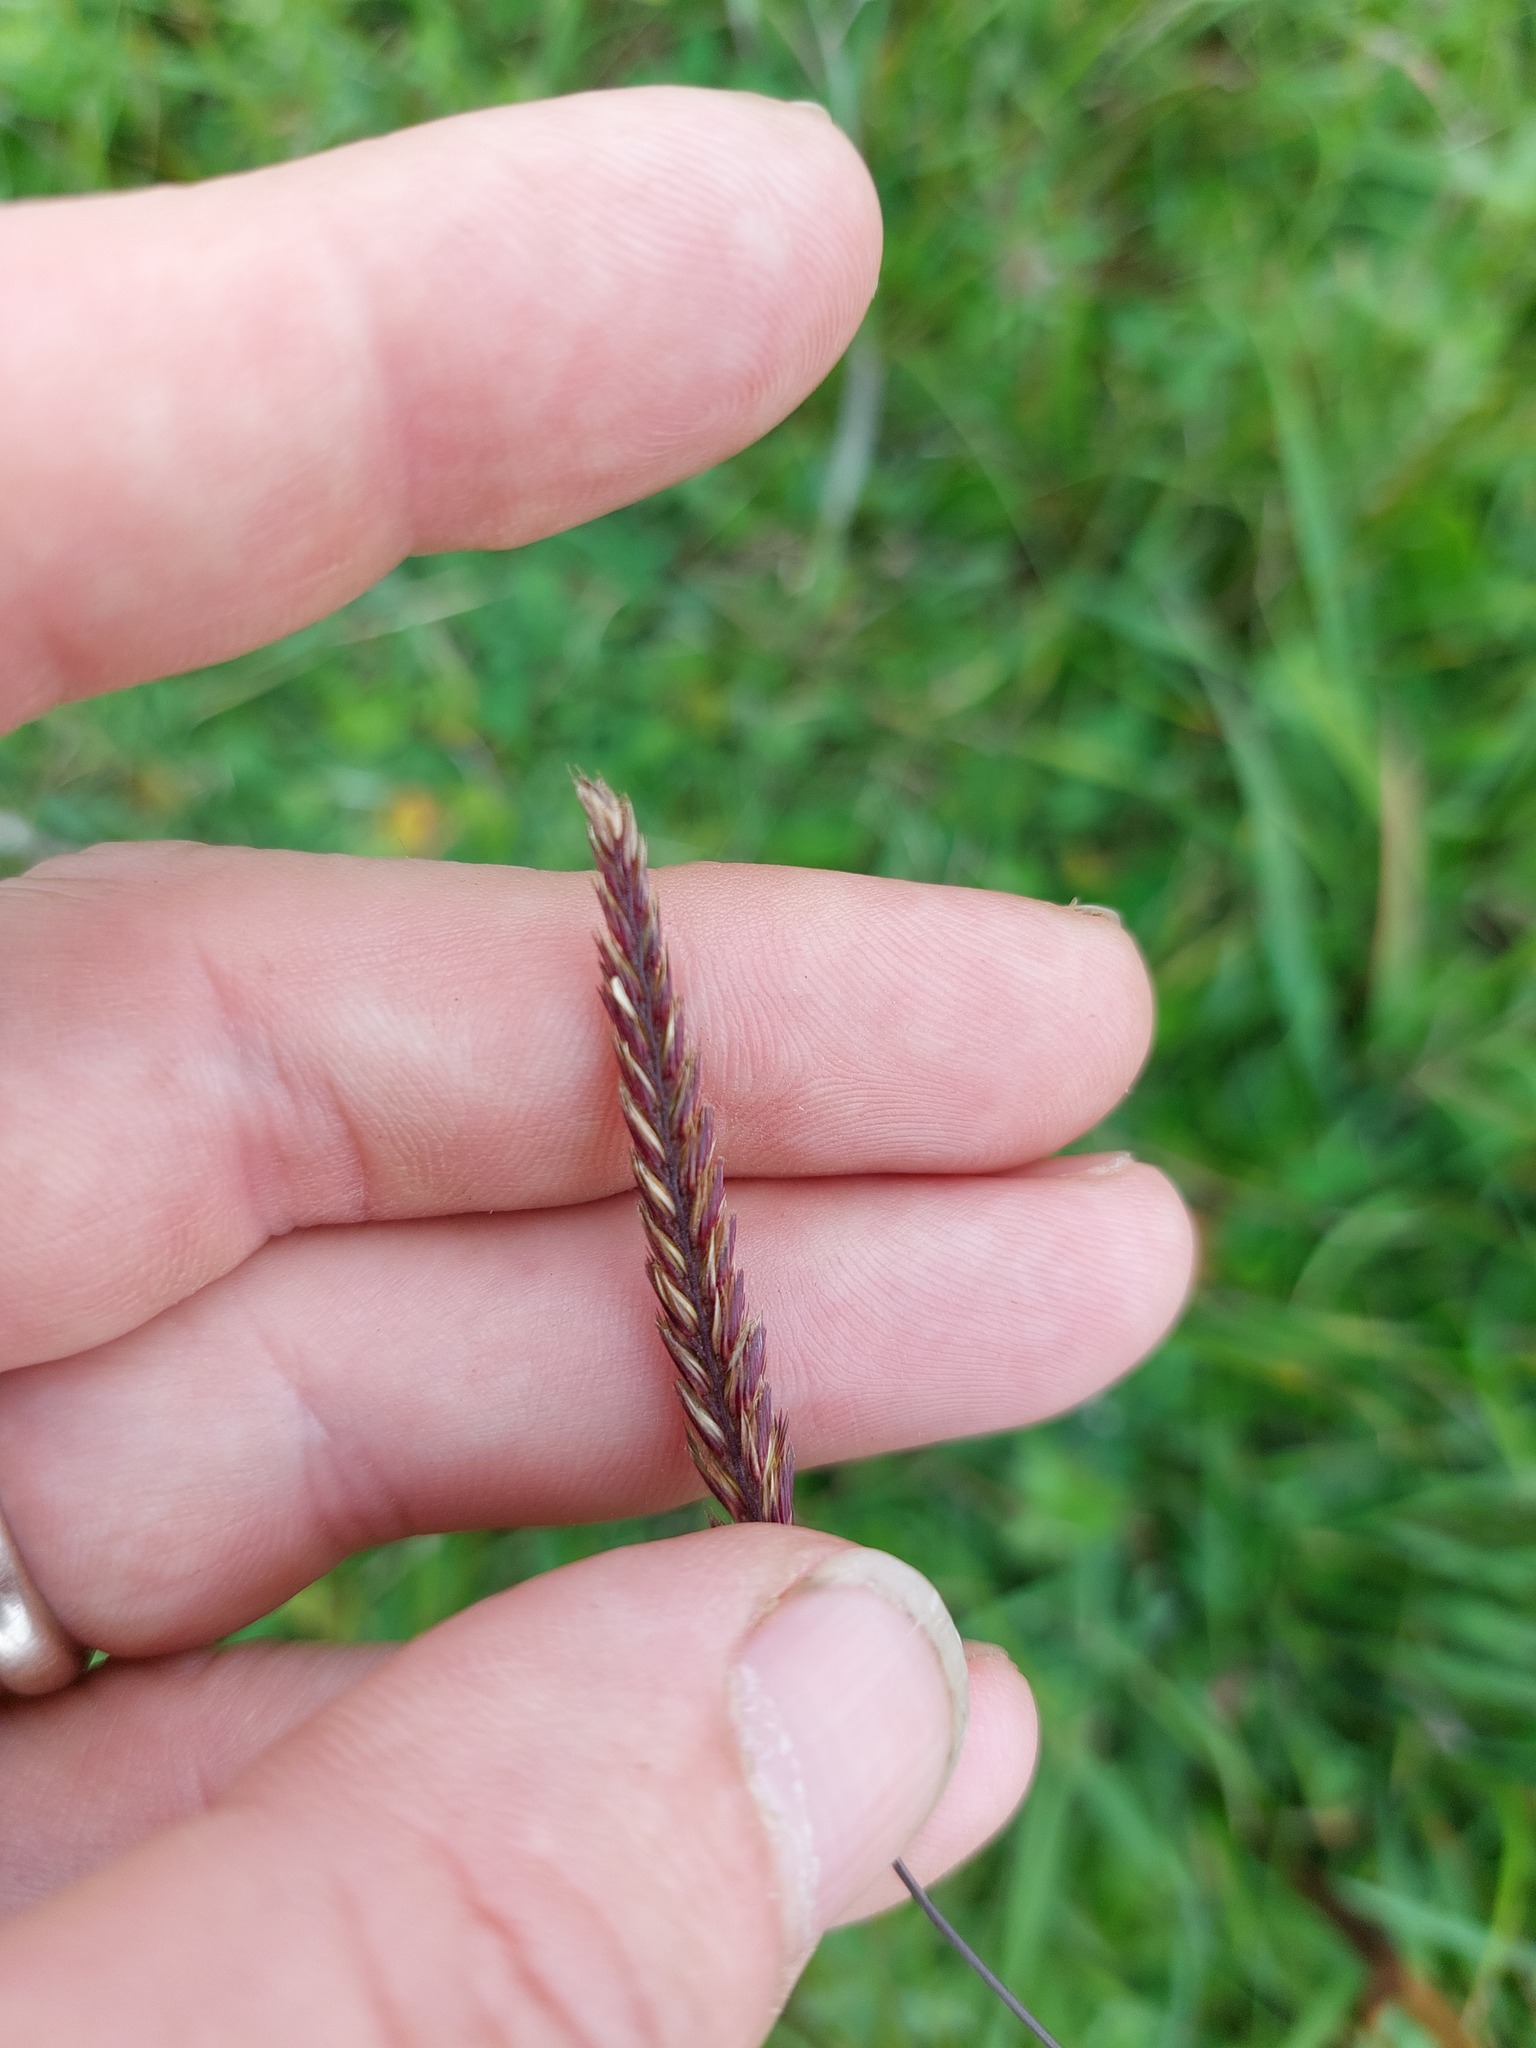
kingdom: Plantae
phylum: Tracheophyta
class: Liliopsida
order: Poales
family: Poaceae
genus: Cynosurus
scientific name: Cynosurus cristatus
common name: Crested dog's-tail
